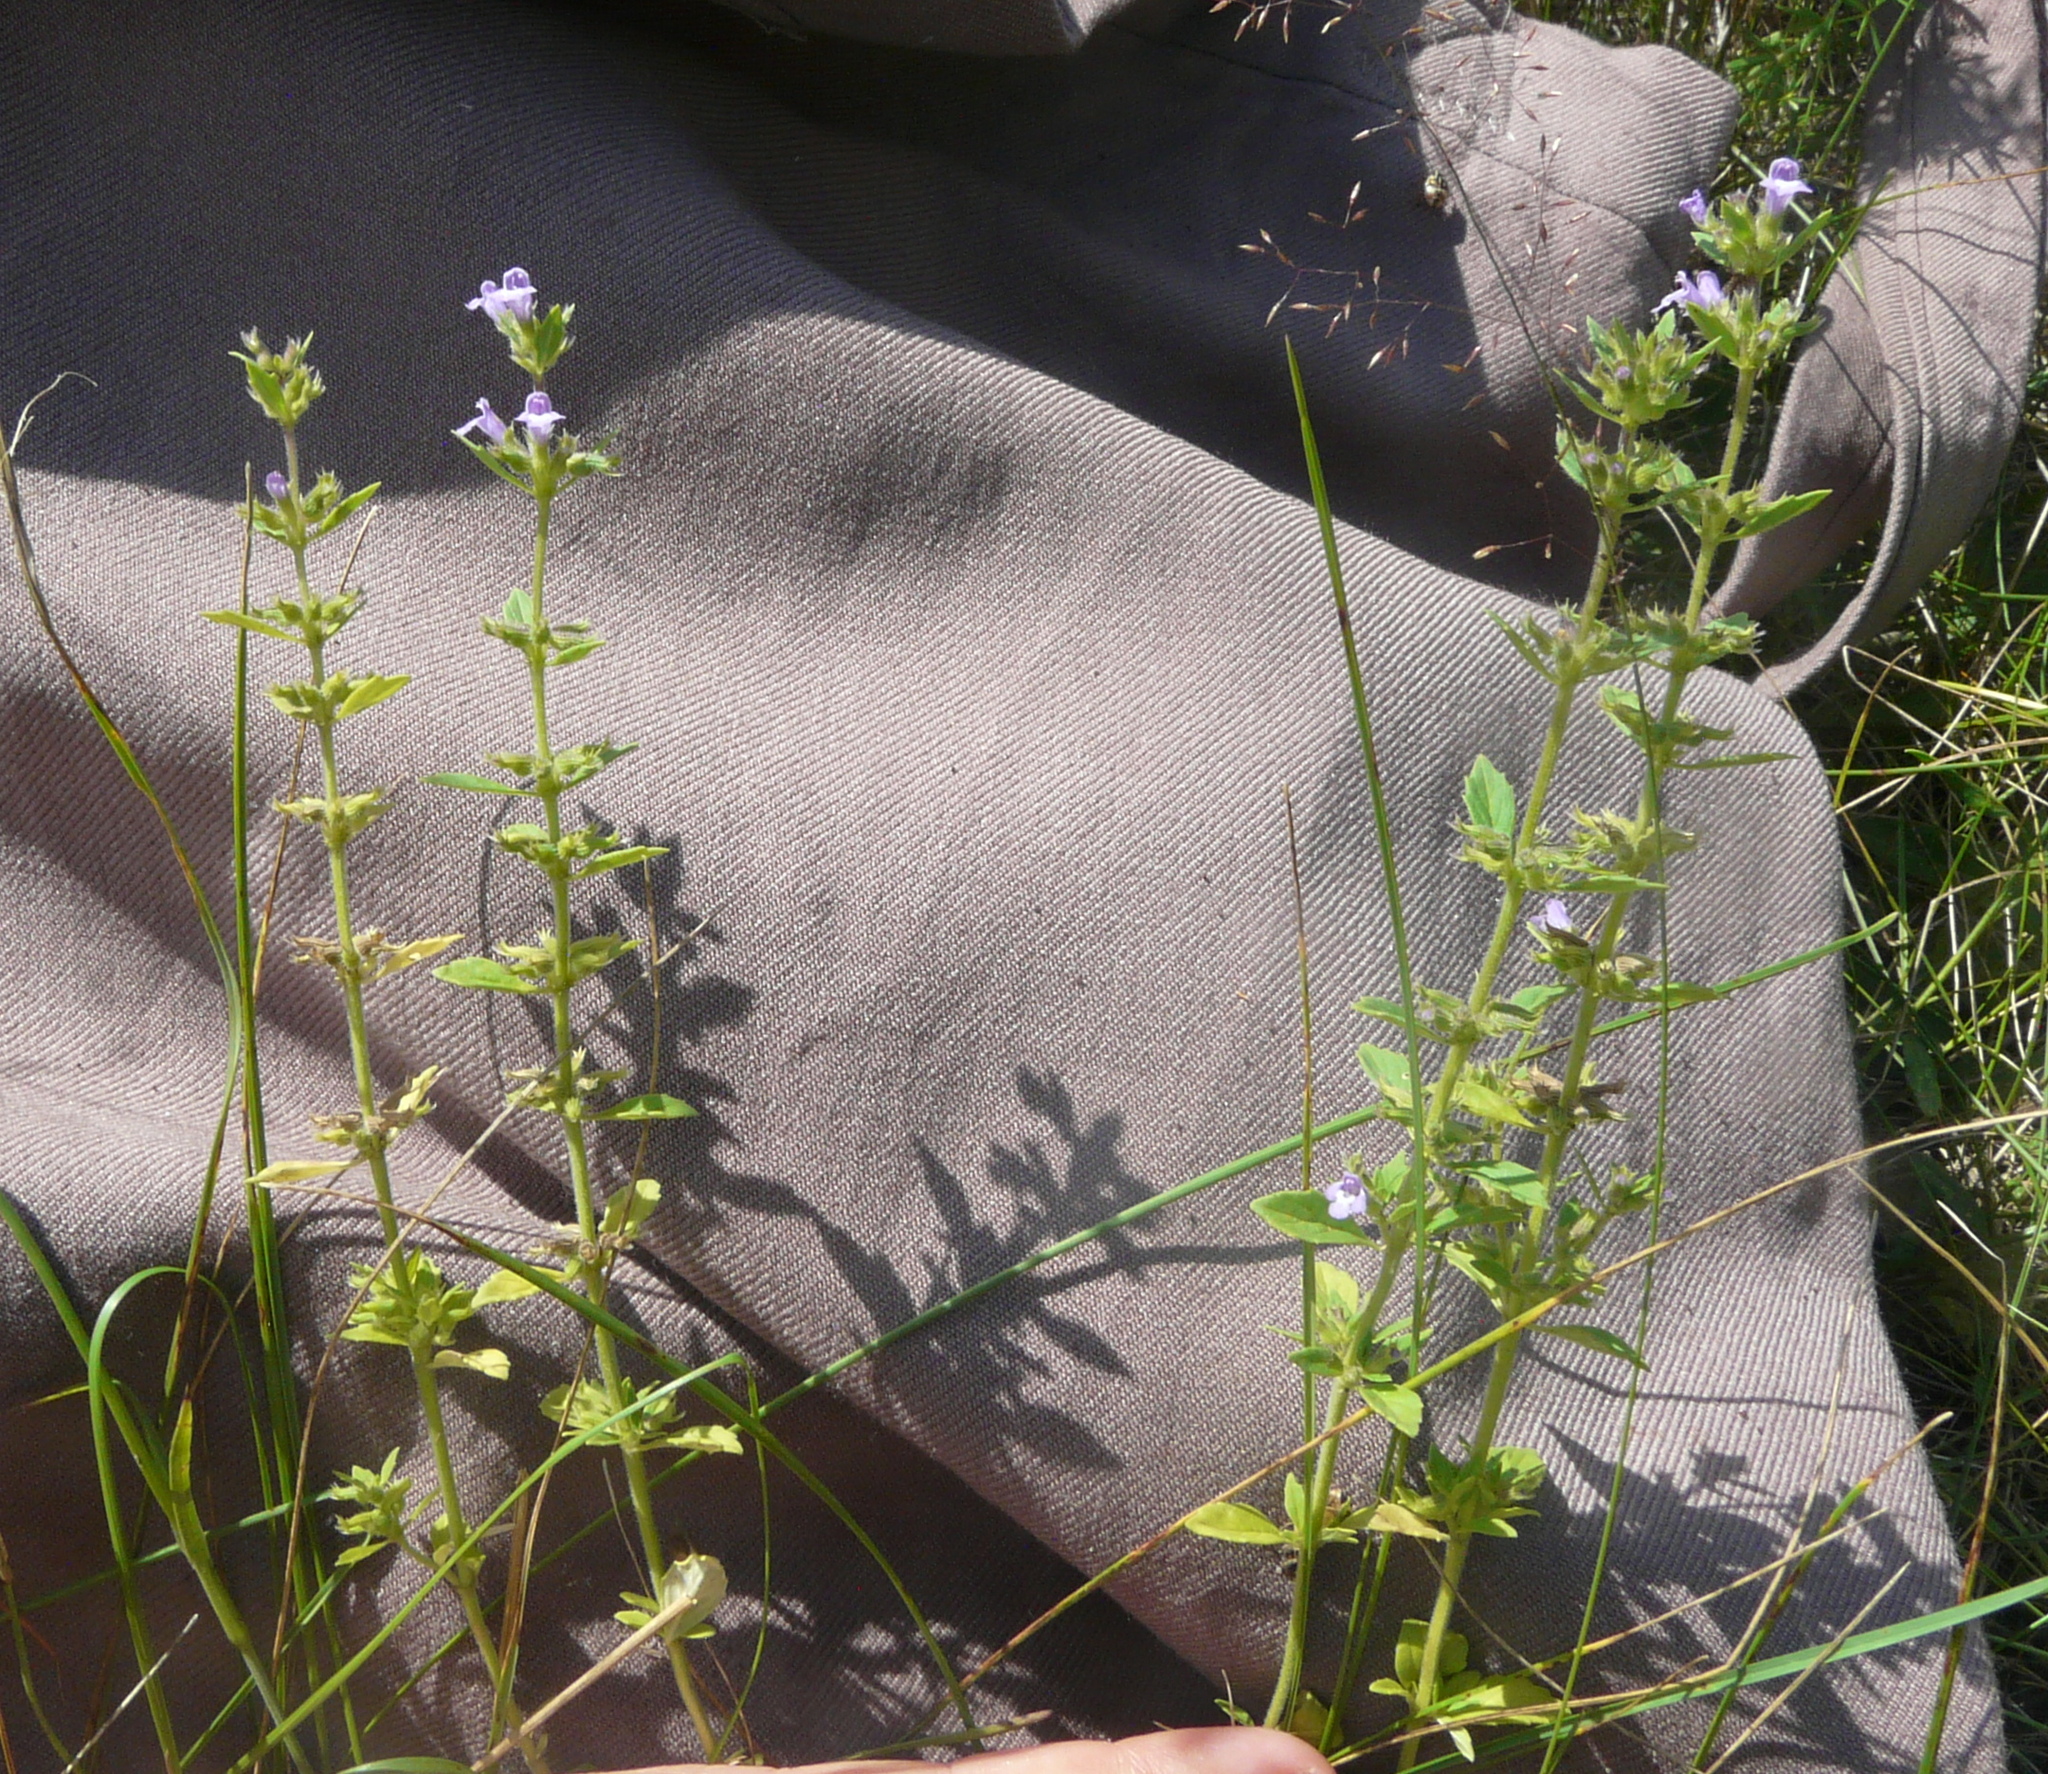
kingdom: Plantae
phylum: Tracheophyta
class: Magnoliopsida
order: Lamiales
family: Lamiaceae
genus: Clinopodium
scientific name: Clinopodium acinos
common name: Basil thyme
